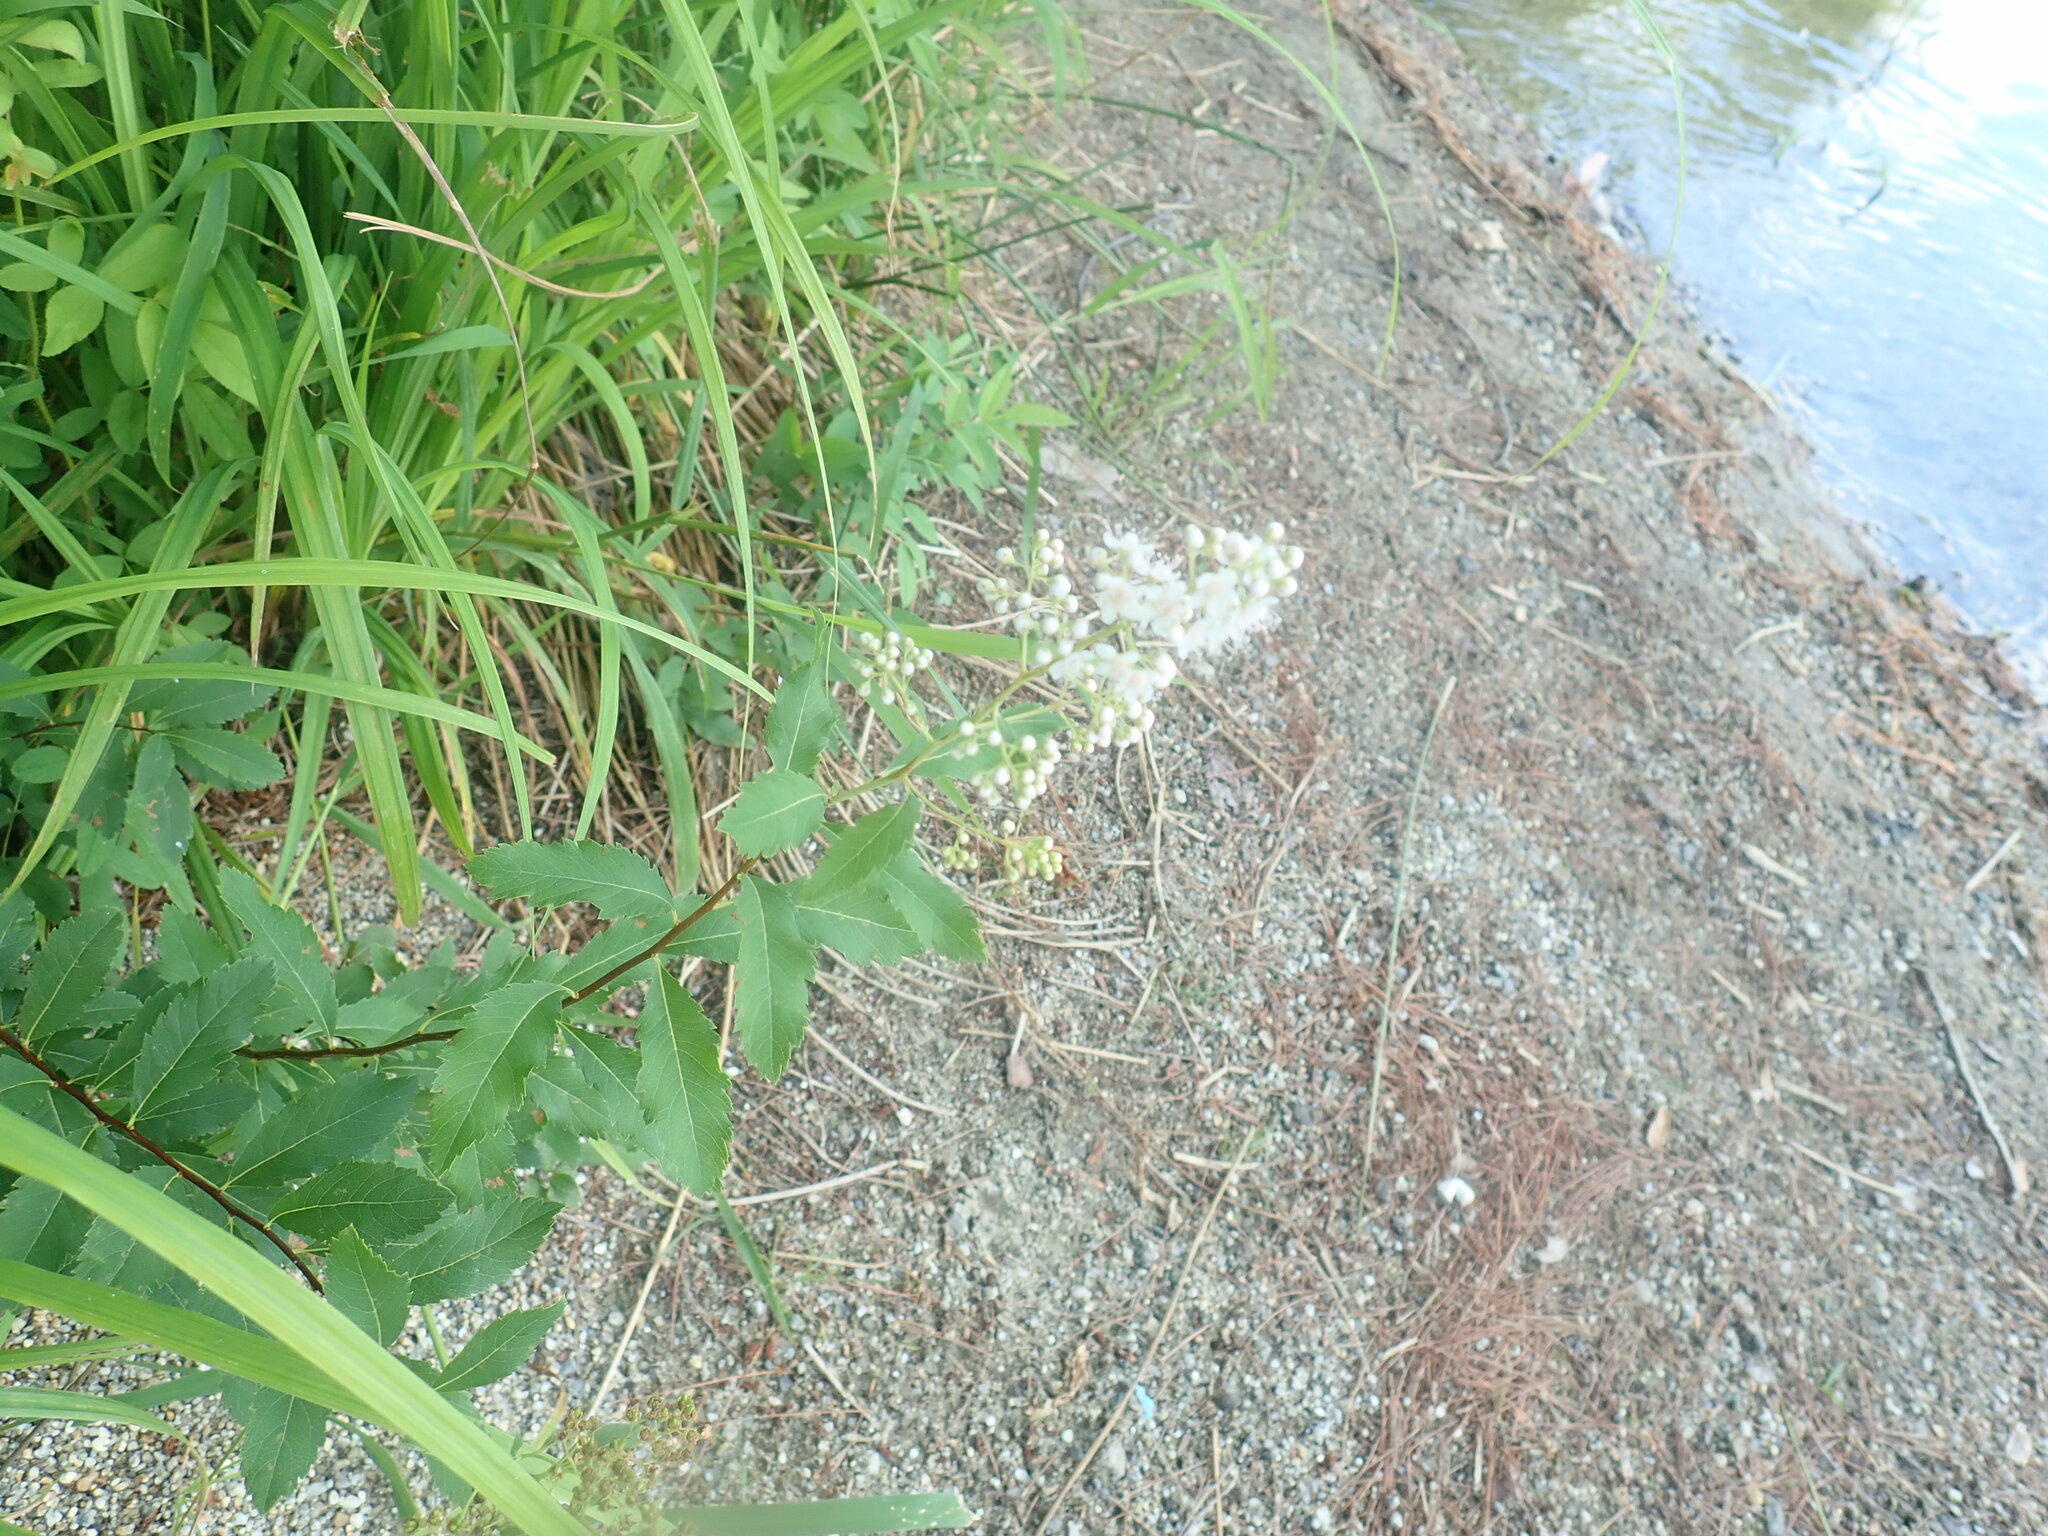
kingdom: Plantae
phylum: Tracheophyta
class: Magnoliopsida
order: Rosales
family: Rosaceae
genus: Spiraea
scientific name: Spiraea alba
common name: Pale bridewort
